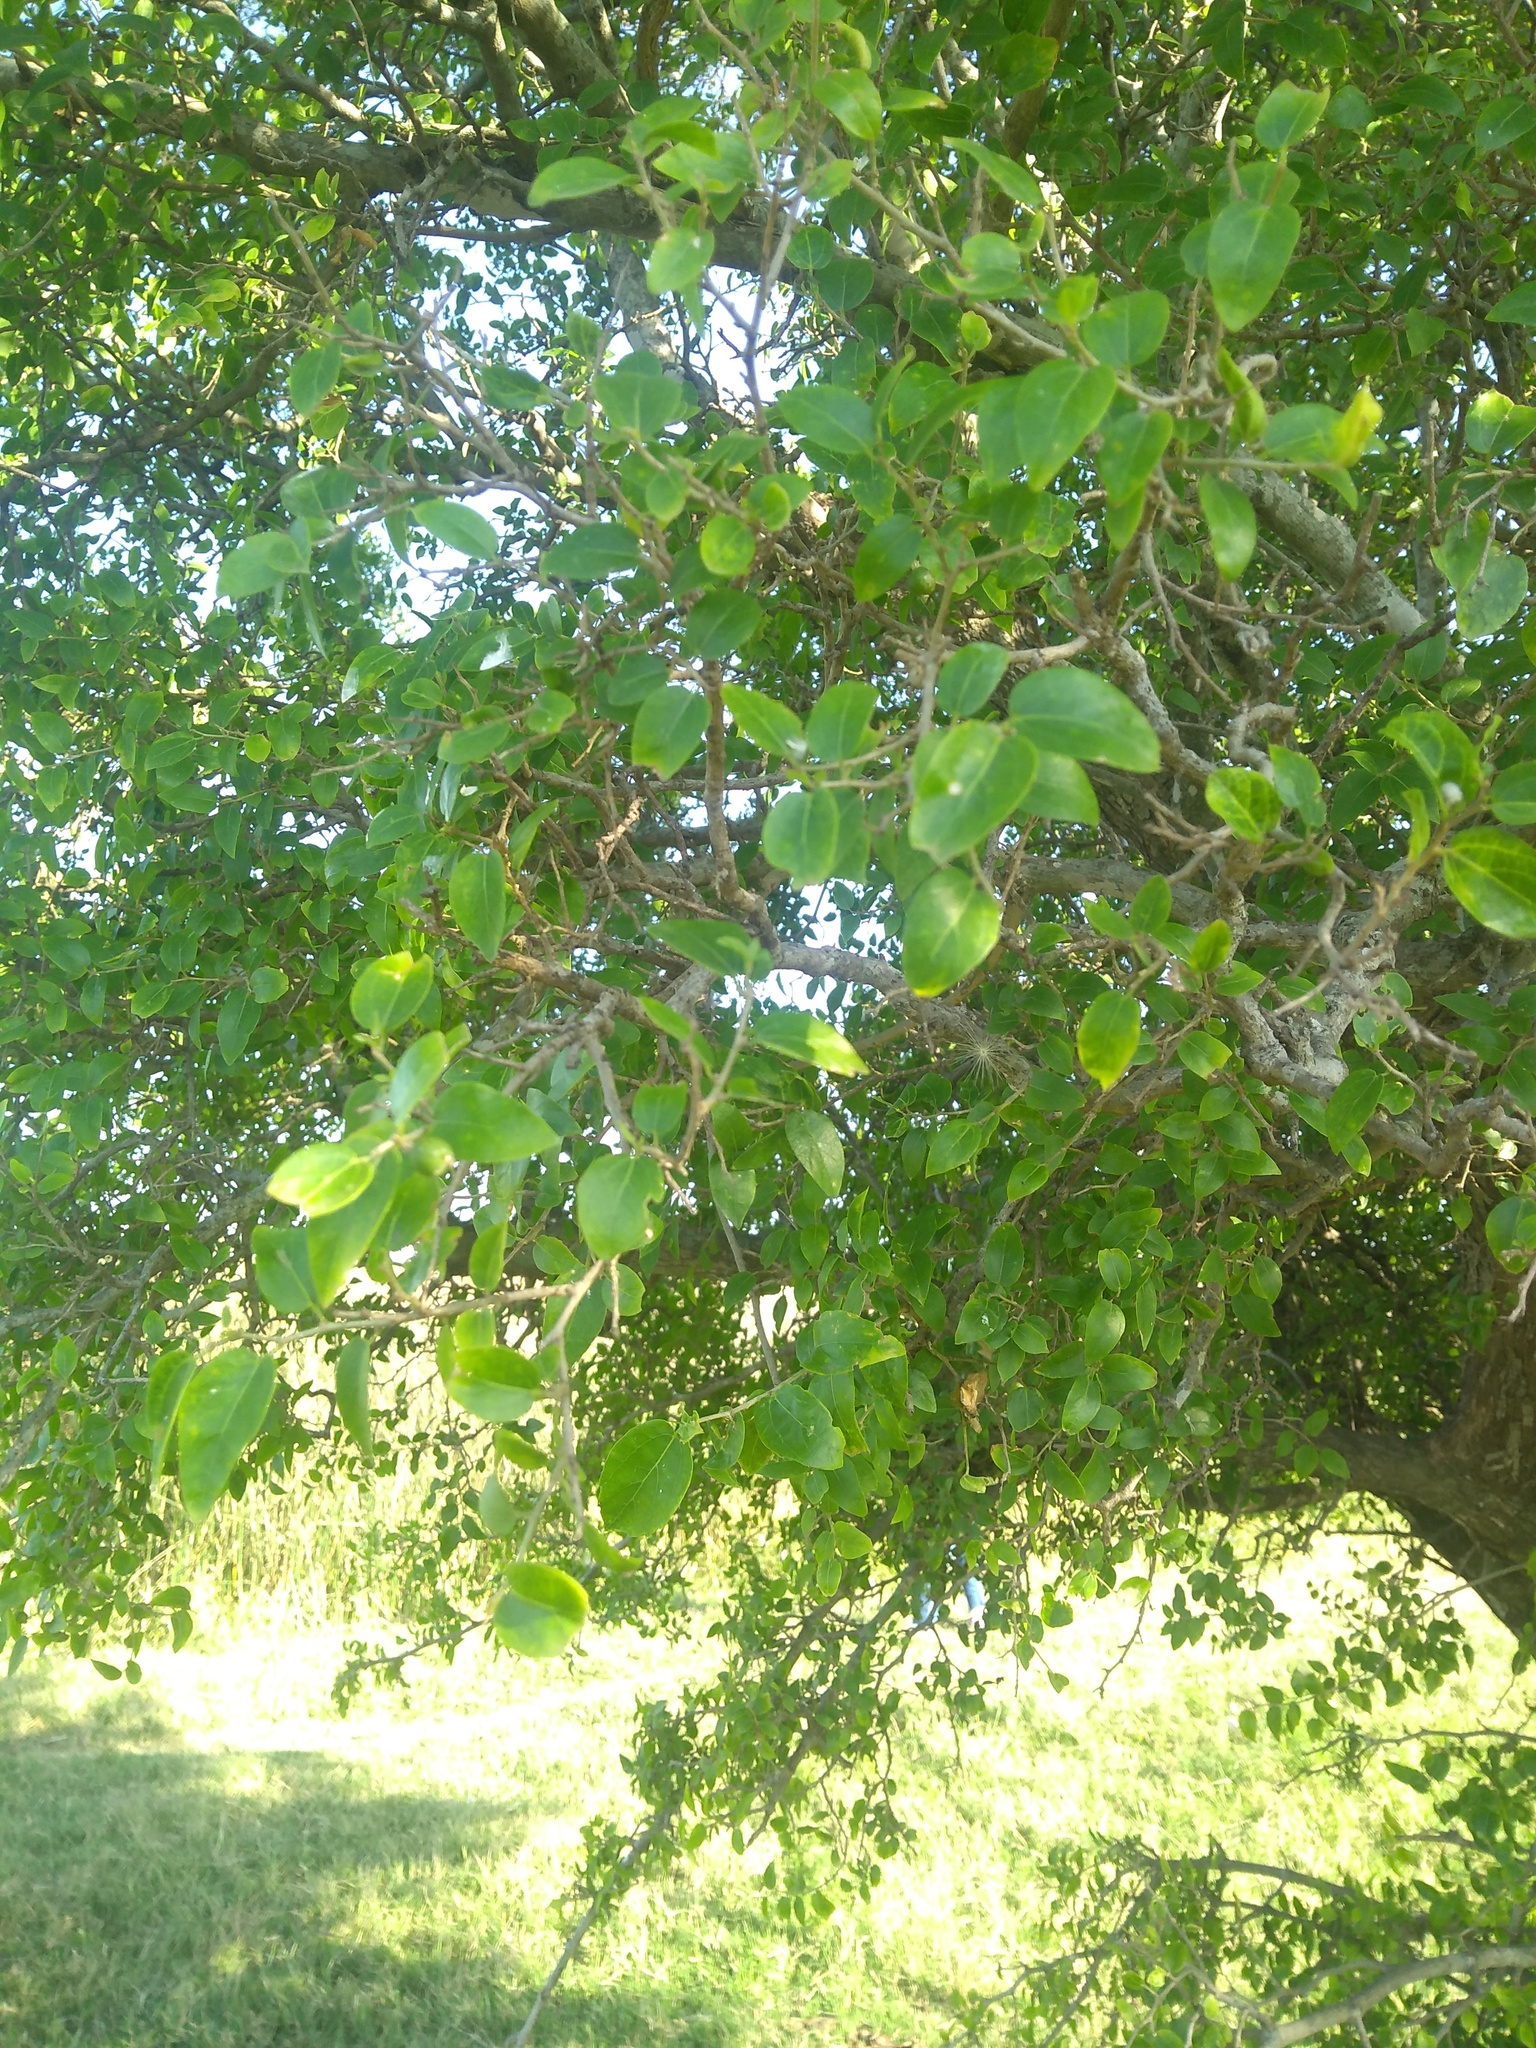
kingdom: Plantae
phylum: Tracheophyta
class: Magnoliopsida
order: Rosales
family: Cannabaceae
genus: Celtis
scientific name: Celtis tala
